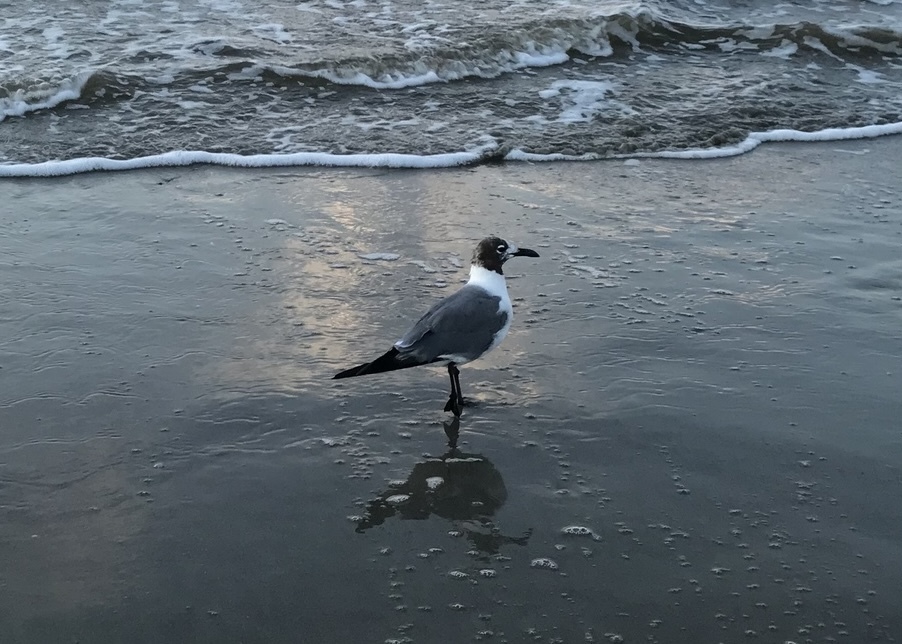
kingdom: Animalia
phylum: Chordata
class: Aves
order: Charadriiformes
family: Laridae
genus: Leucophaeus
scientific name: Leucophaeus atricilla
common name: Laughing gull
